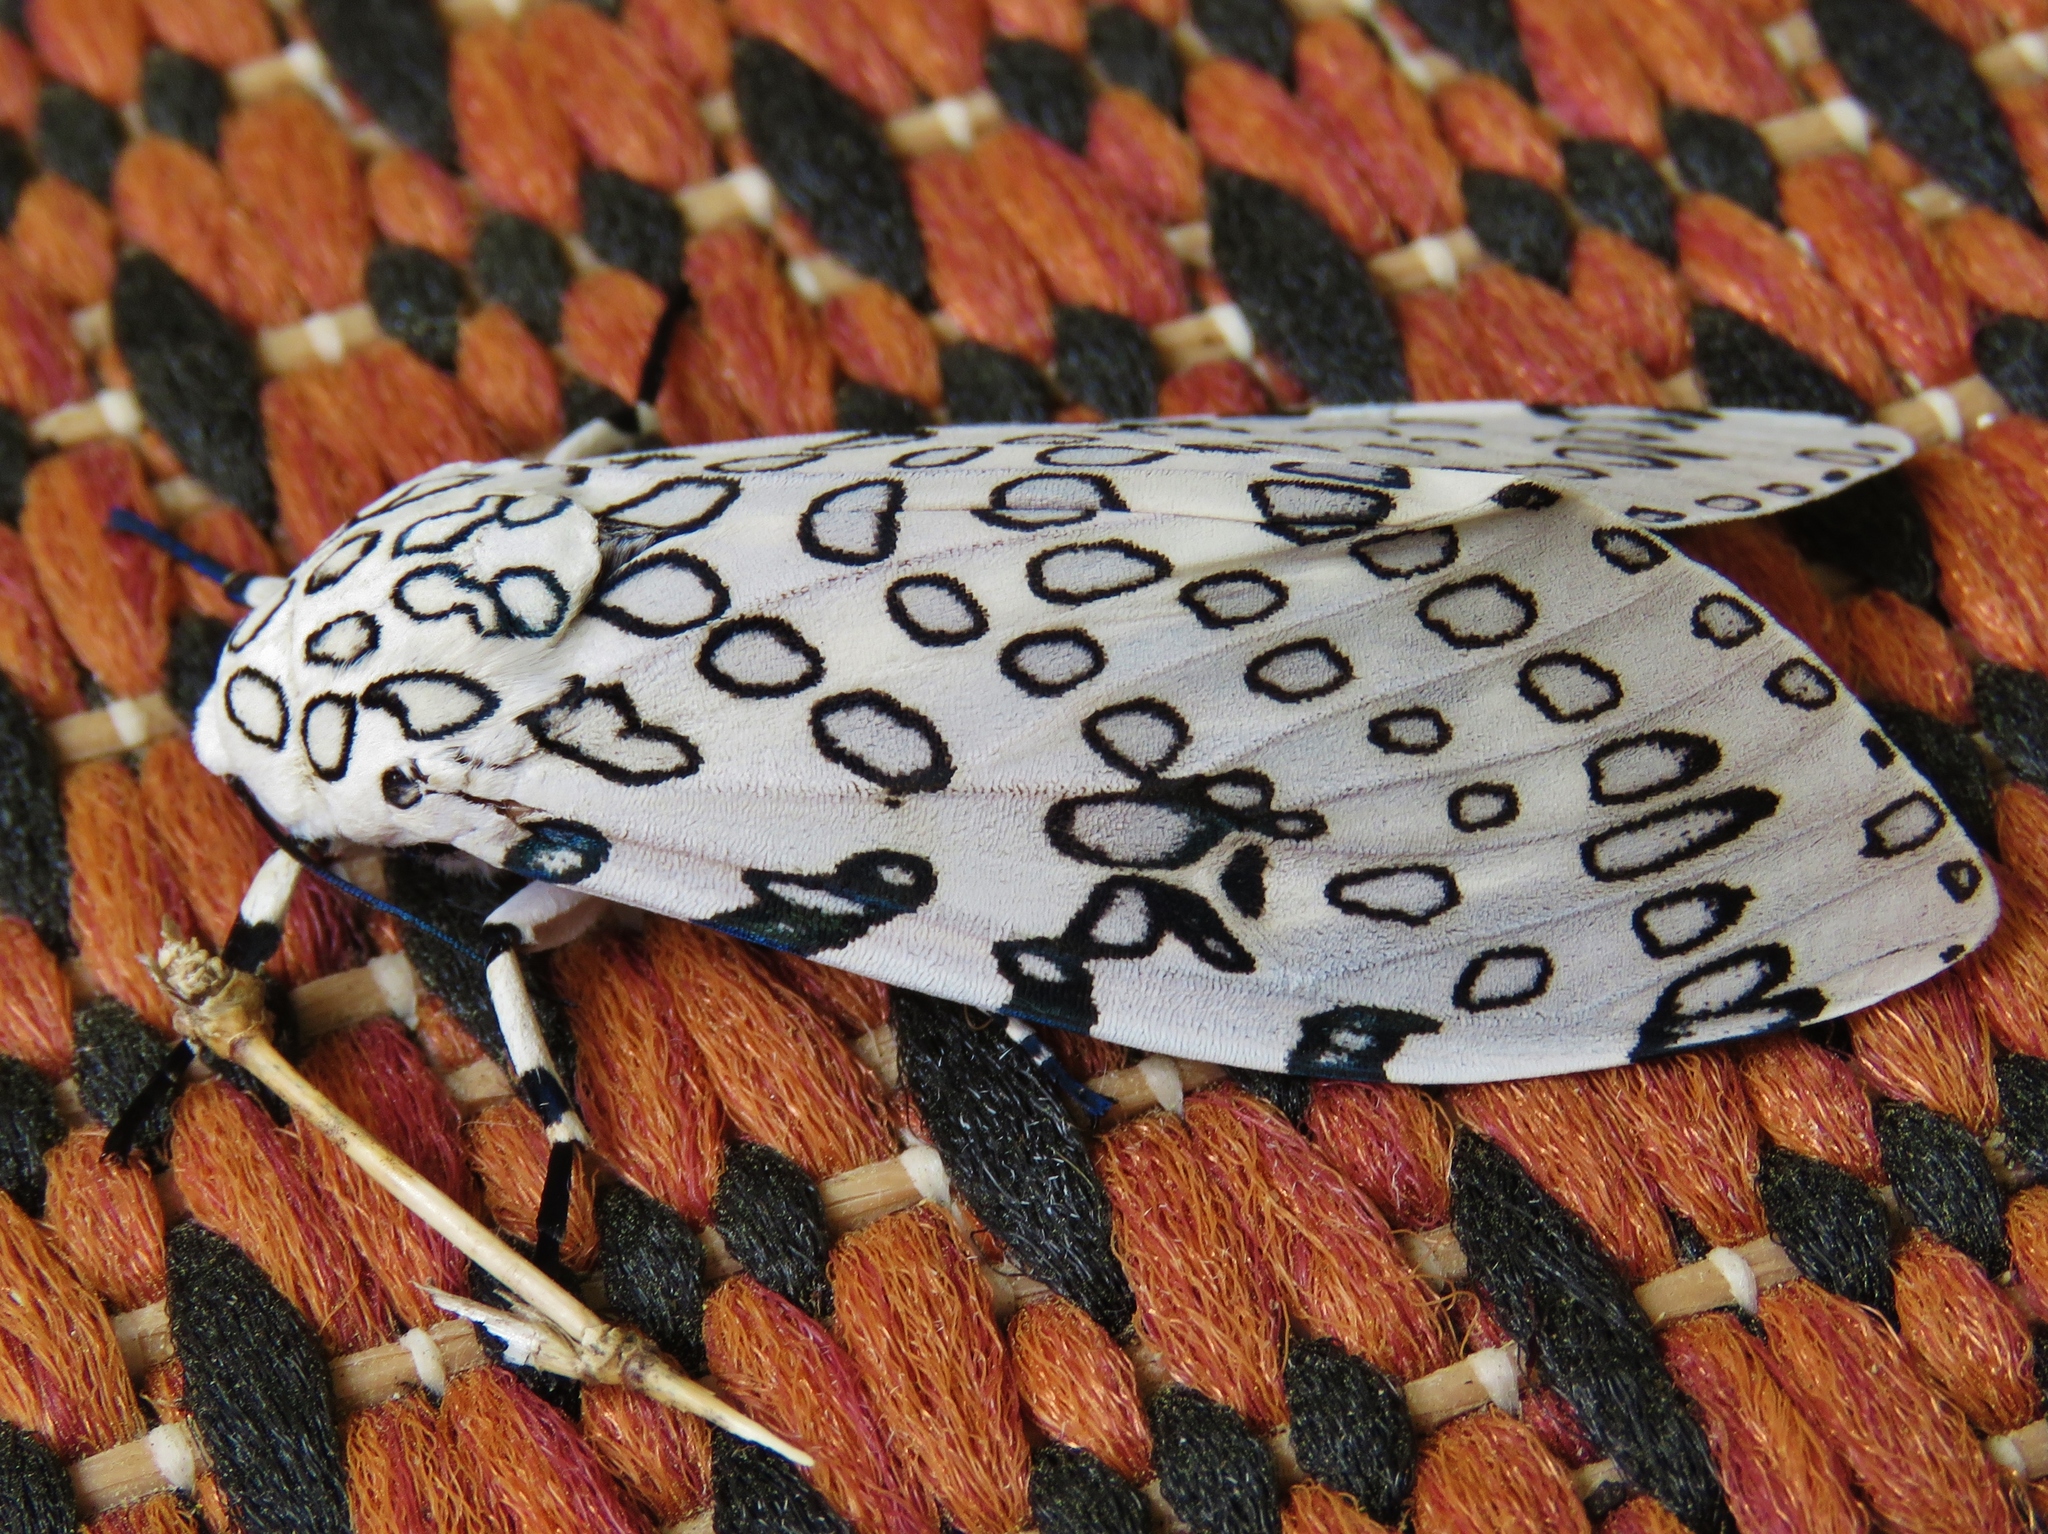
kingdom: Animalia
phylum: Arthropoda
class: Insecta
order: Lepidoptera
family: Erebidae
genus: Hypercompe
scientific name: Hypercompe scribonia
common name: Giant leopard moth
